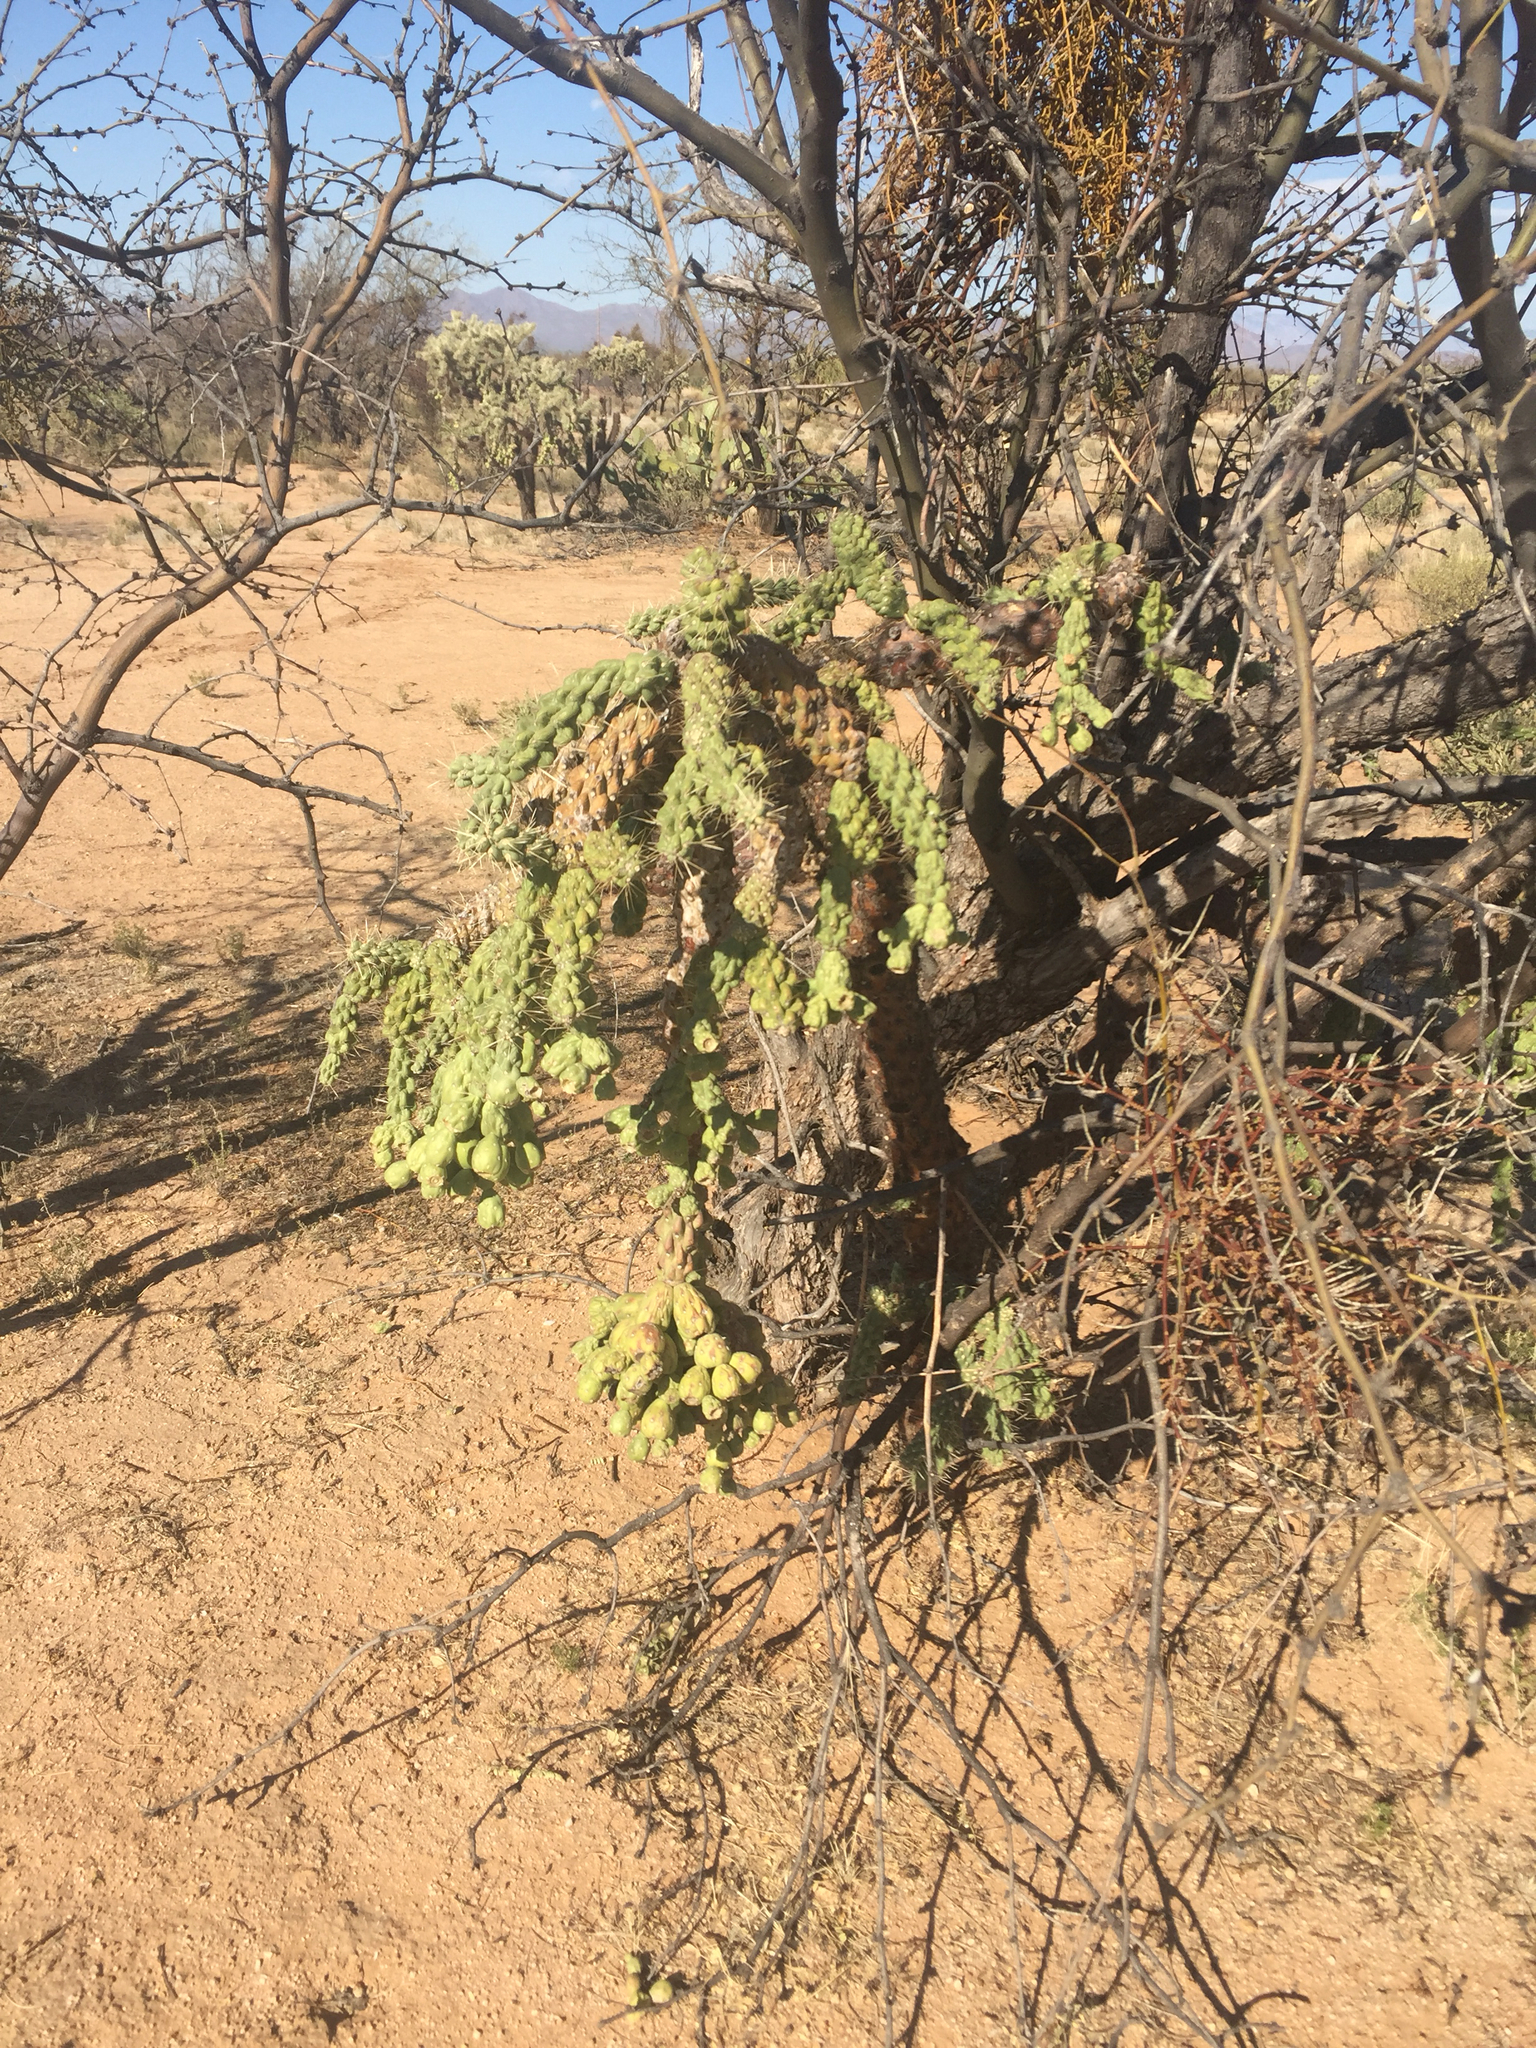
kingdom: Plantae
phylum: Tracheophyta
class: Magnoliopsida
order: Caryophyllales
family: Cactaceae
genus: Cylindropuntia
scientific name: Cylindropuntia fulgida
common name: Jumping cholla
